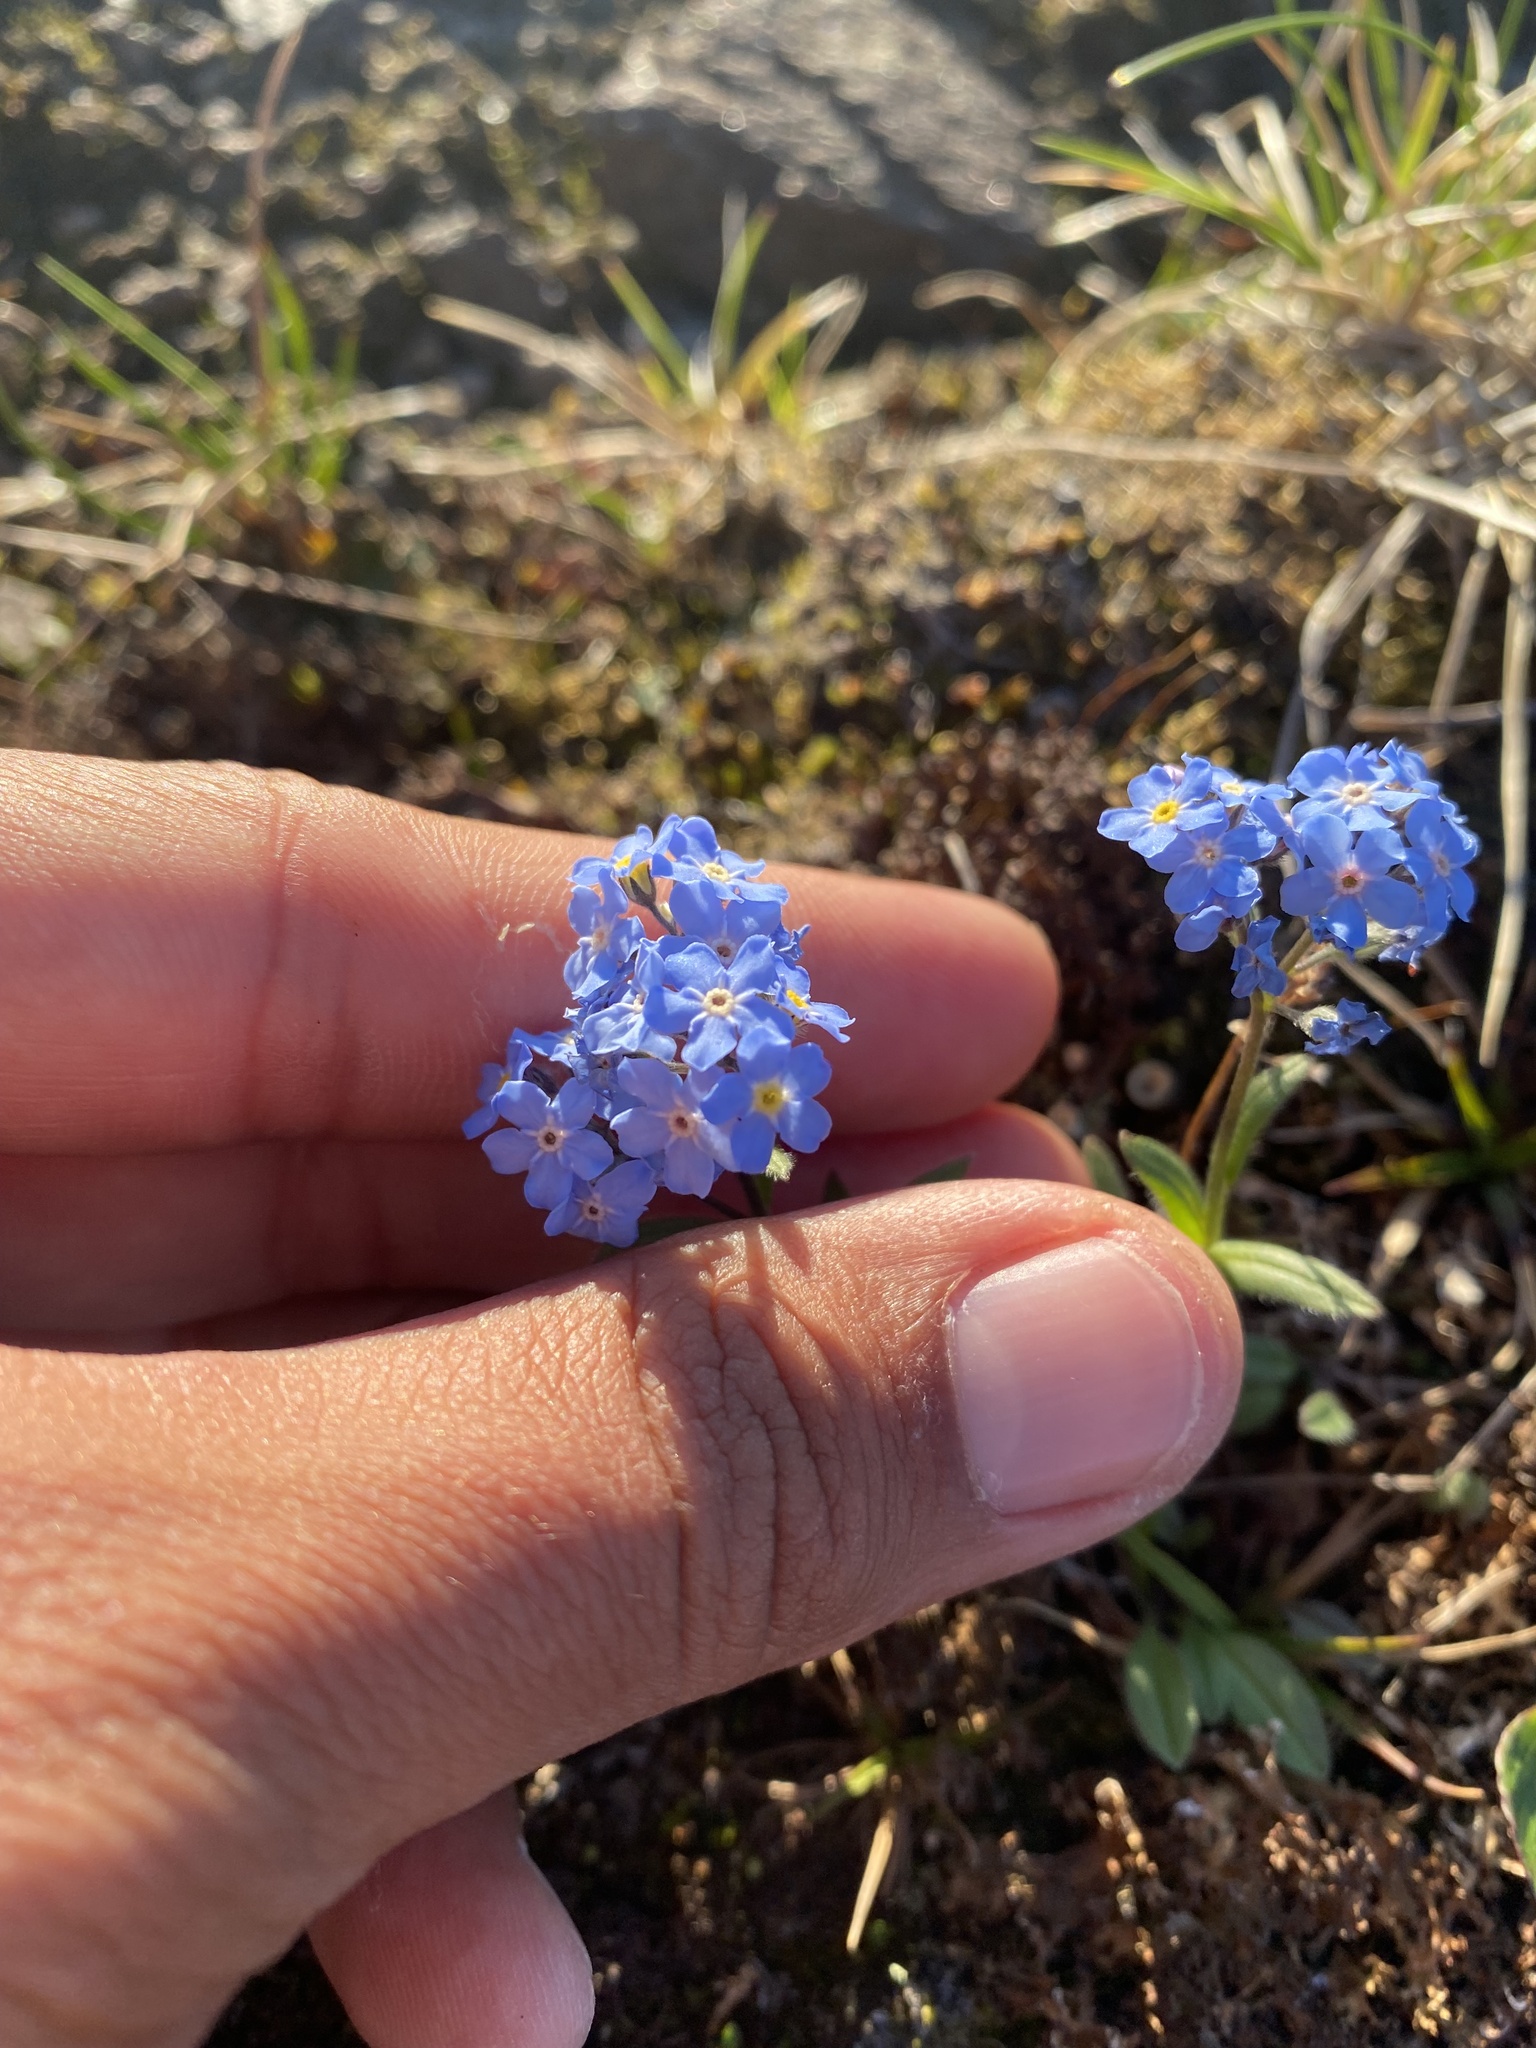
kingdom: Plantae
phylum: Tracheophyta
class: Magnoliopsida
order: Boraginales
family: Boraginaceae
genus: Myosotis
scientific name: Myosotis asiatica
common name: Asian forget-me-not
